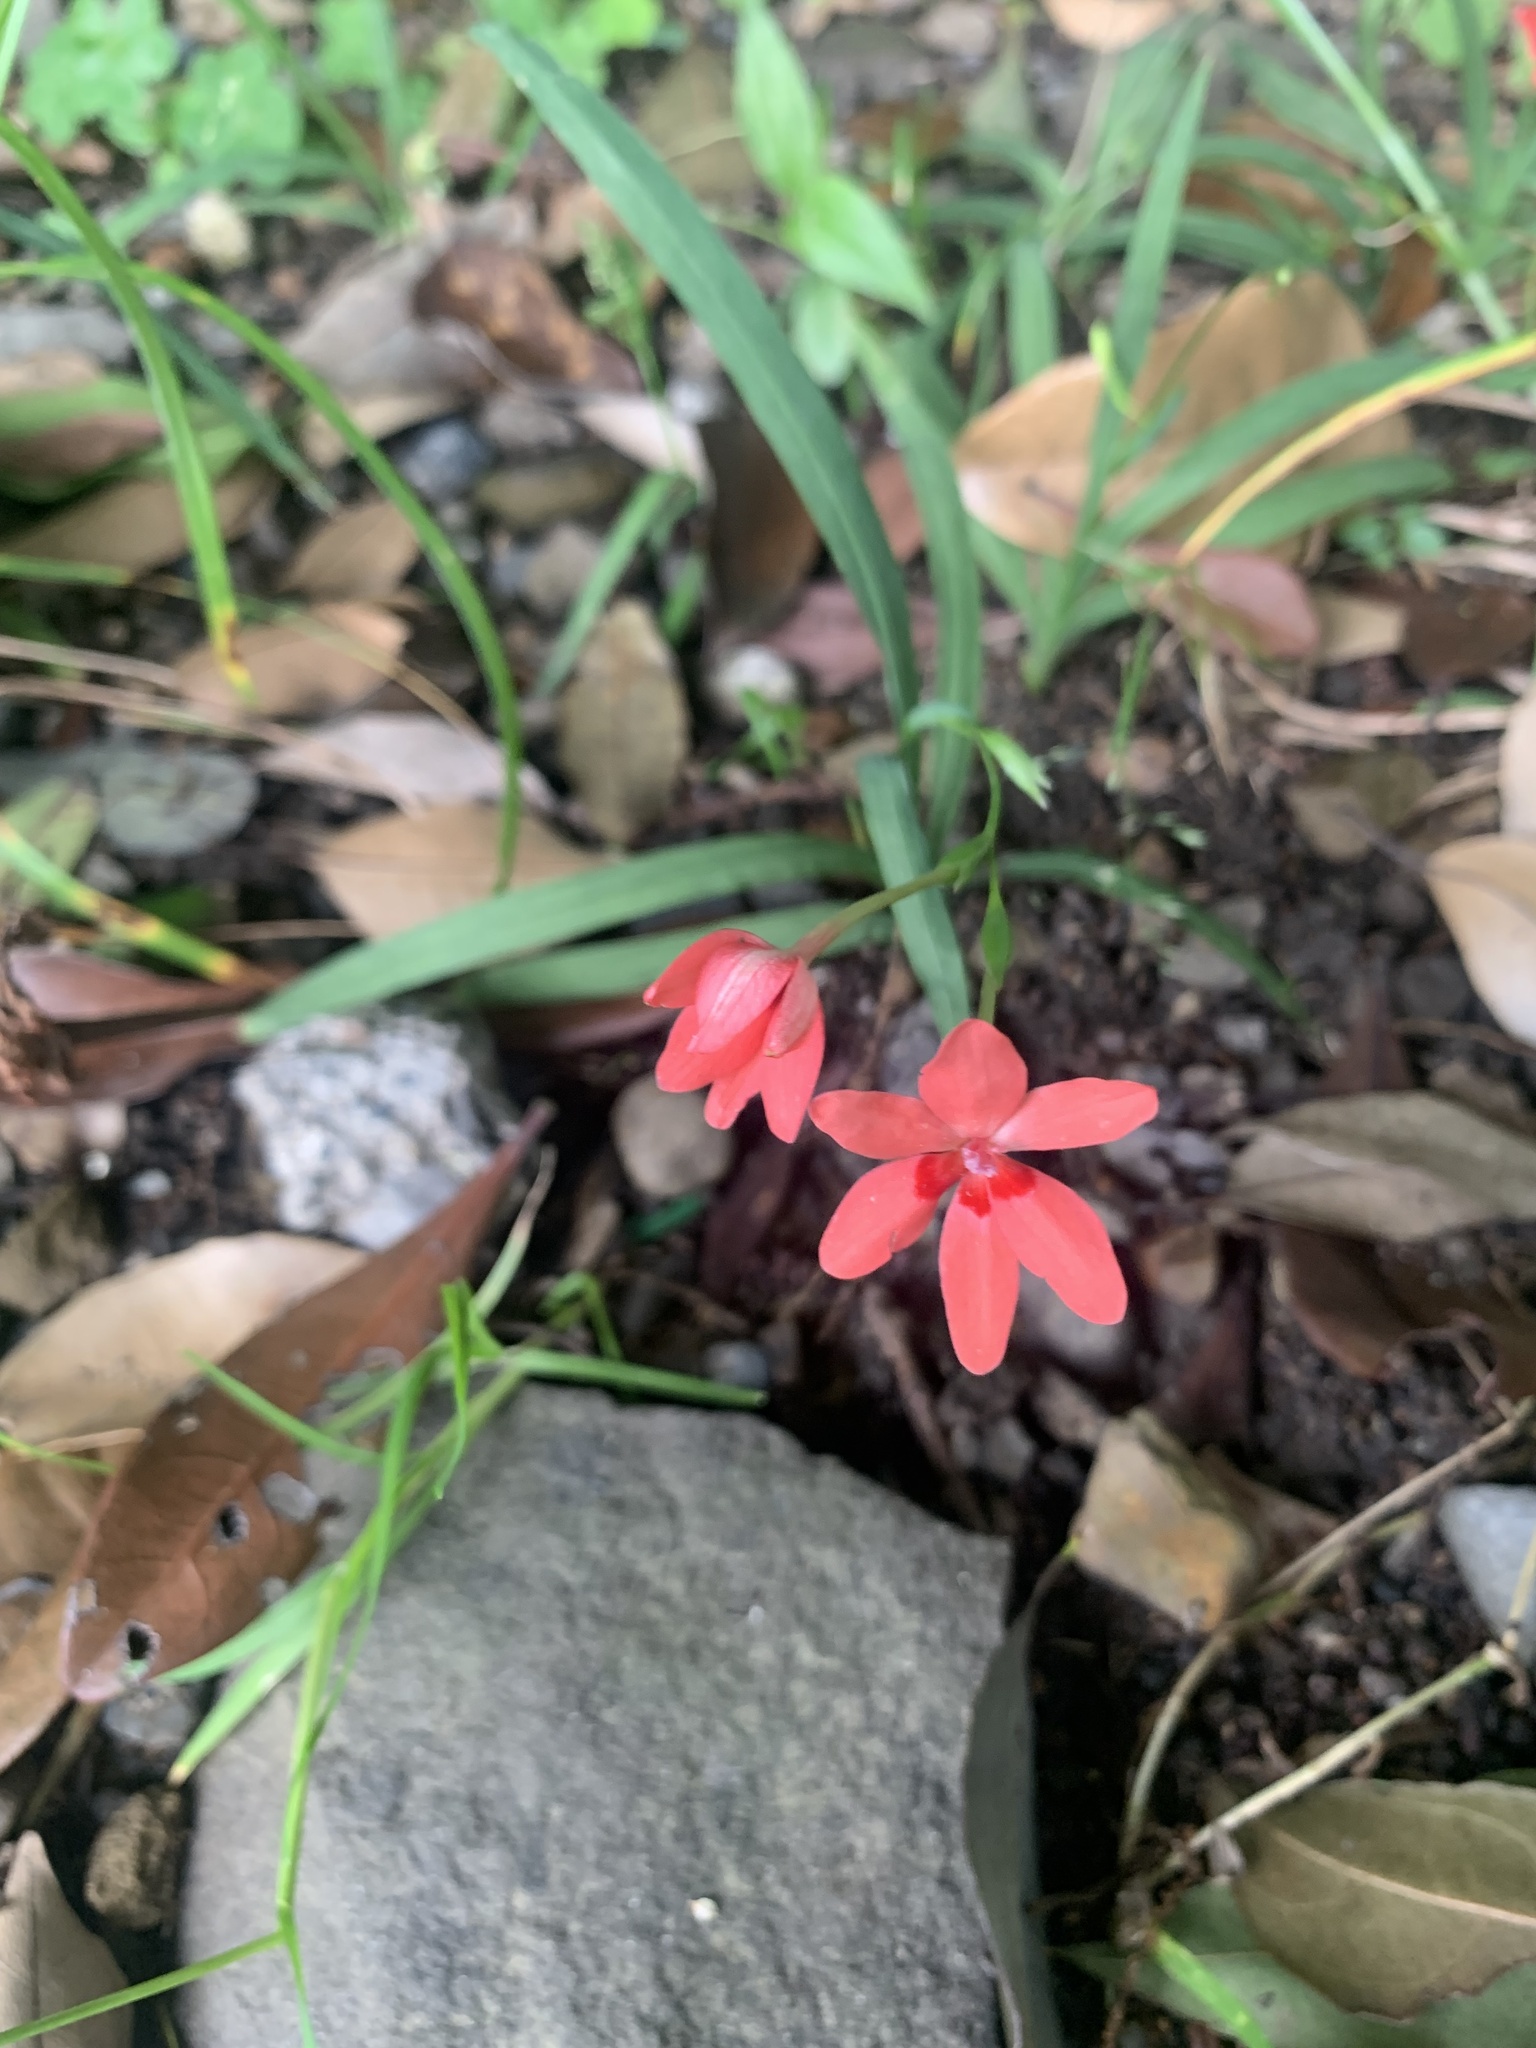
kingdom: Plantae
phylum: Tracheophyta
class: Liliopsida
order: Asparagales
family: Iridaceae
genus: Freesia
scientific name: Freesia laxa
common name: False freesia
